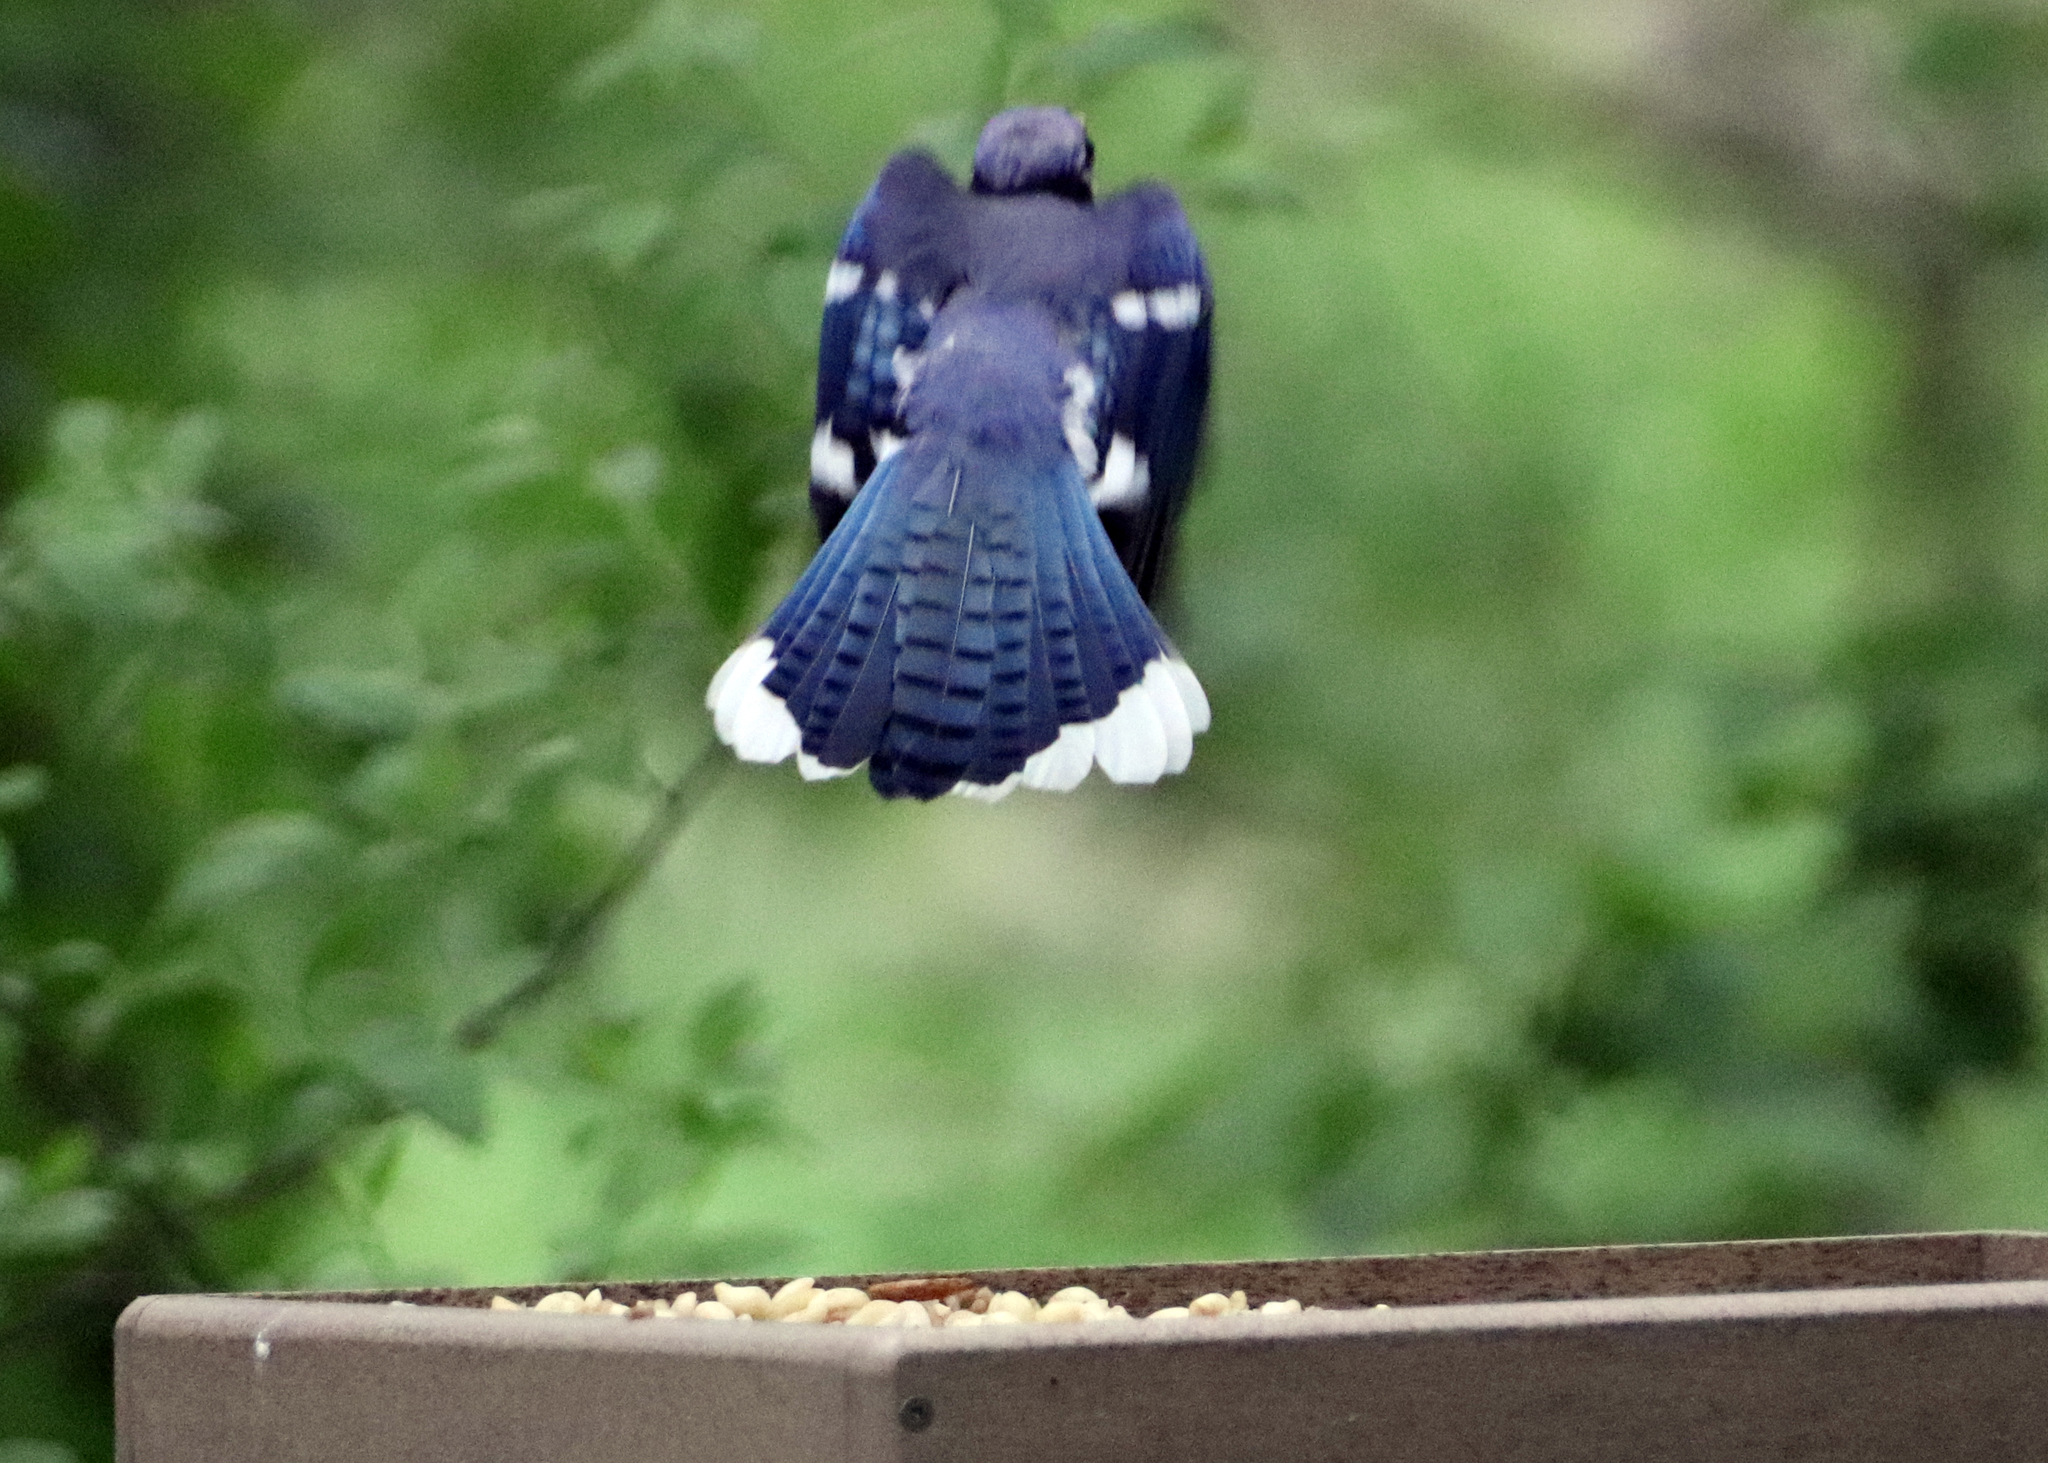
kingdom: Animalia
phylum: Chordata
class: Aves
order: Passeriformes
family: Corvidae
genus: Cyanocitta
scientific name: Cyanocitta cristata
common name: Blue jay
